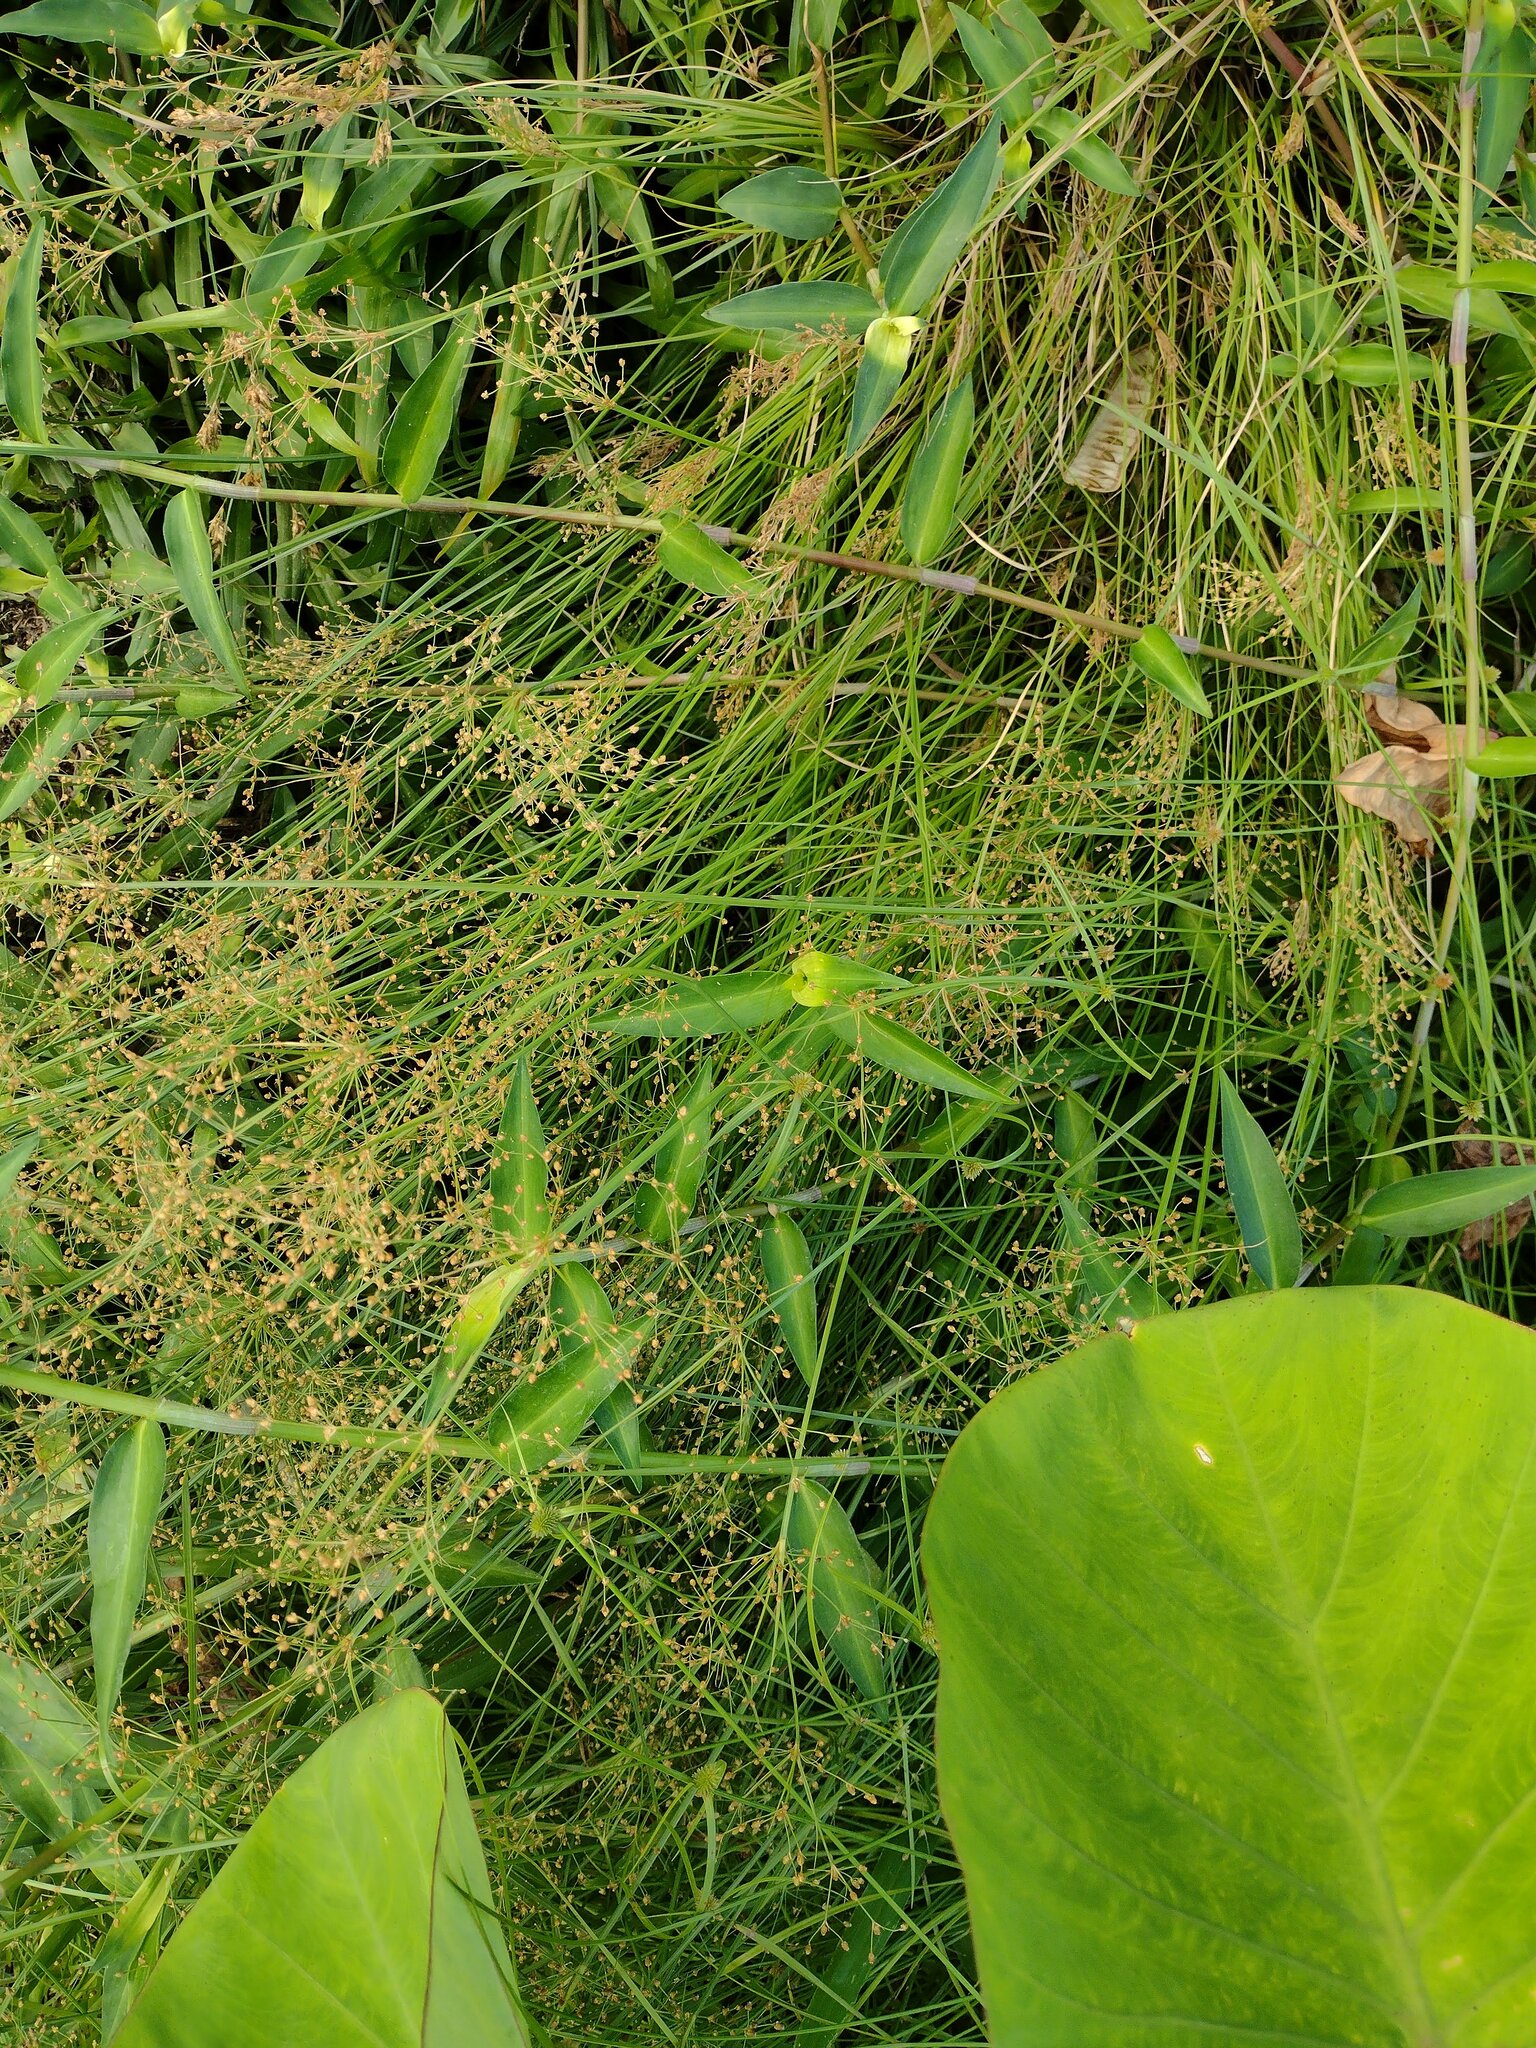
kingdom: Plantae
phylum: Tracheophyta
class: Liliopsida
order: Poales
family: Cyperaceae
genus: Fimbristylis
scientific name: Fimbristylis littoralis
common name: Fimbry
